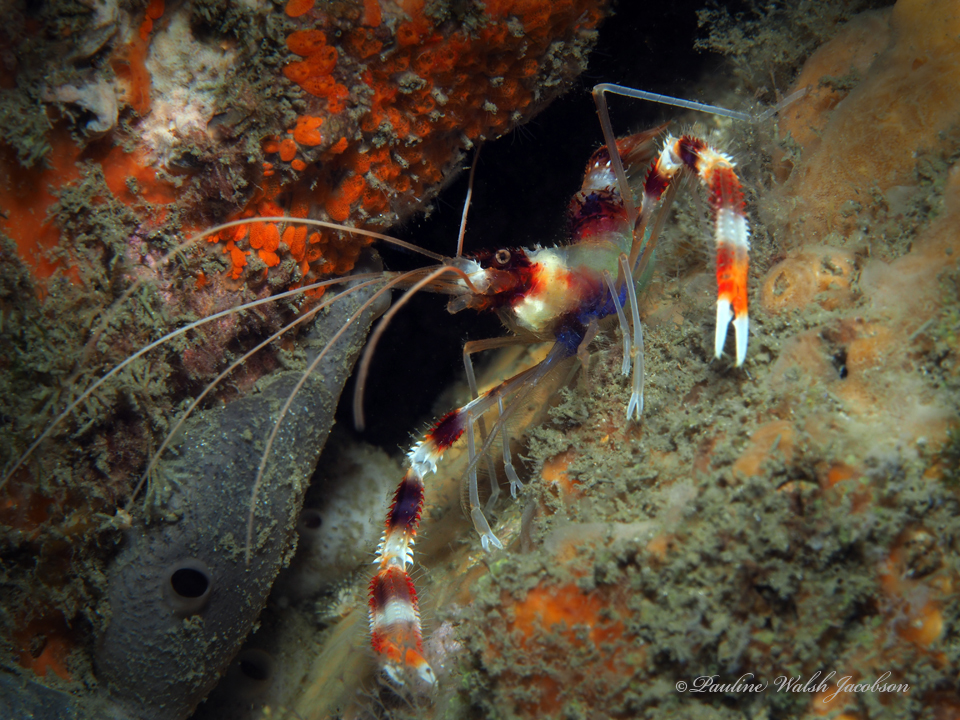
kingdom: Animalia
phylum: Arthropoda
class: Malacostraca
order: Decapoda
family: Stenopodidae
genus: Stenopus
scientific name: Stenopus hispidus
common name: Banded coral shrimp
